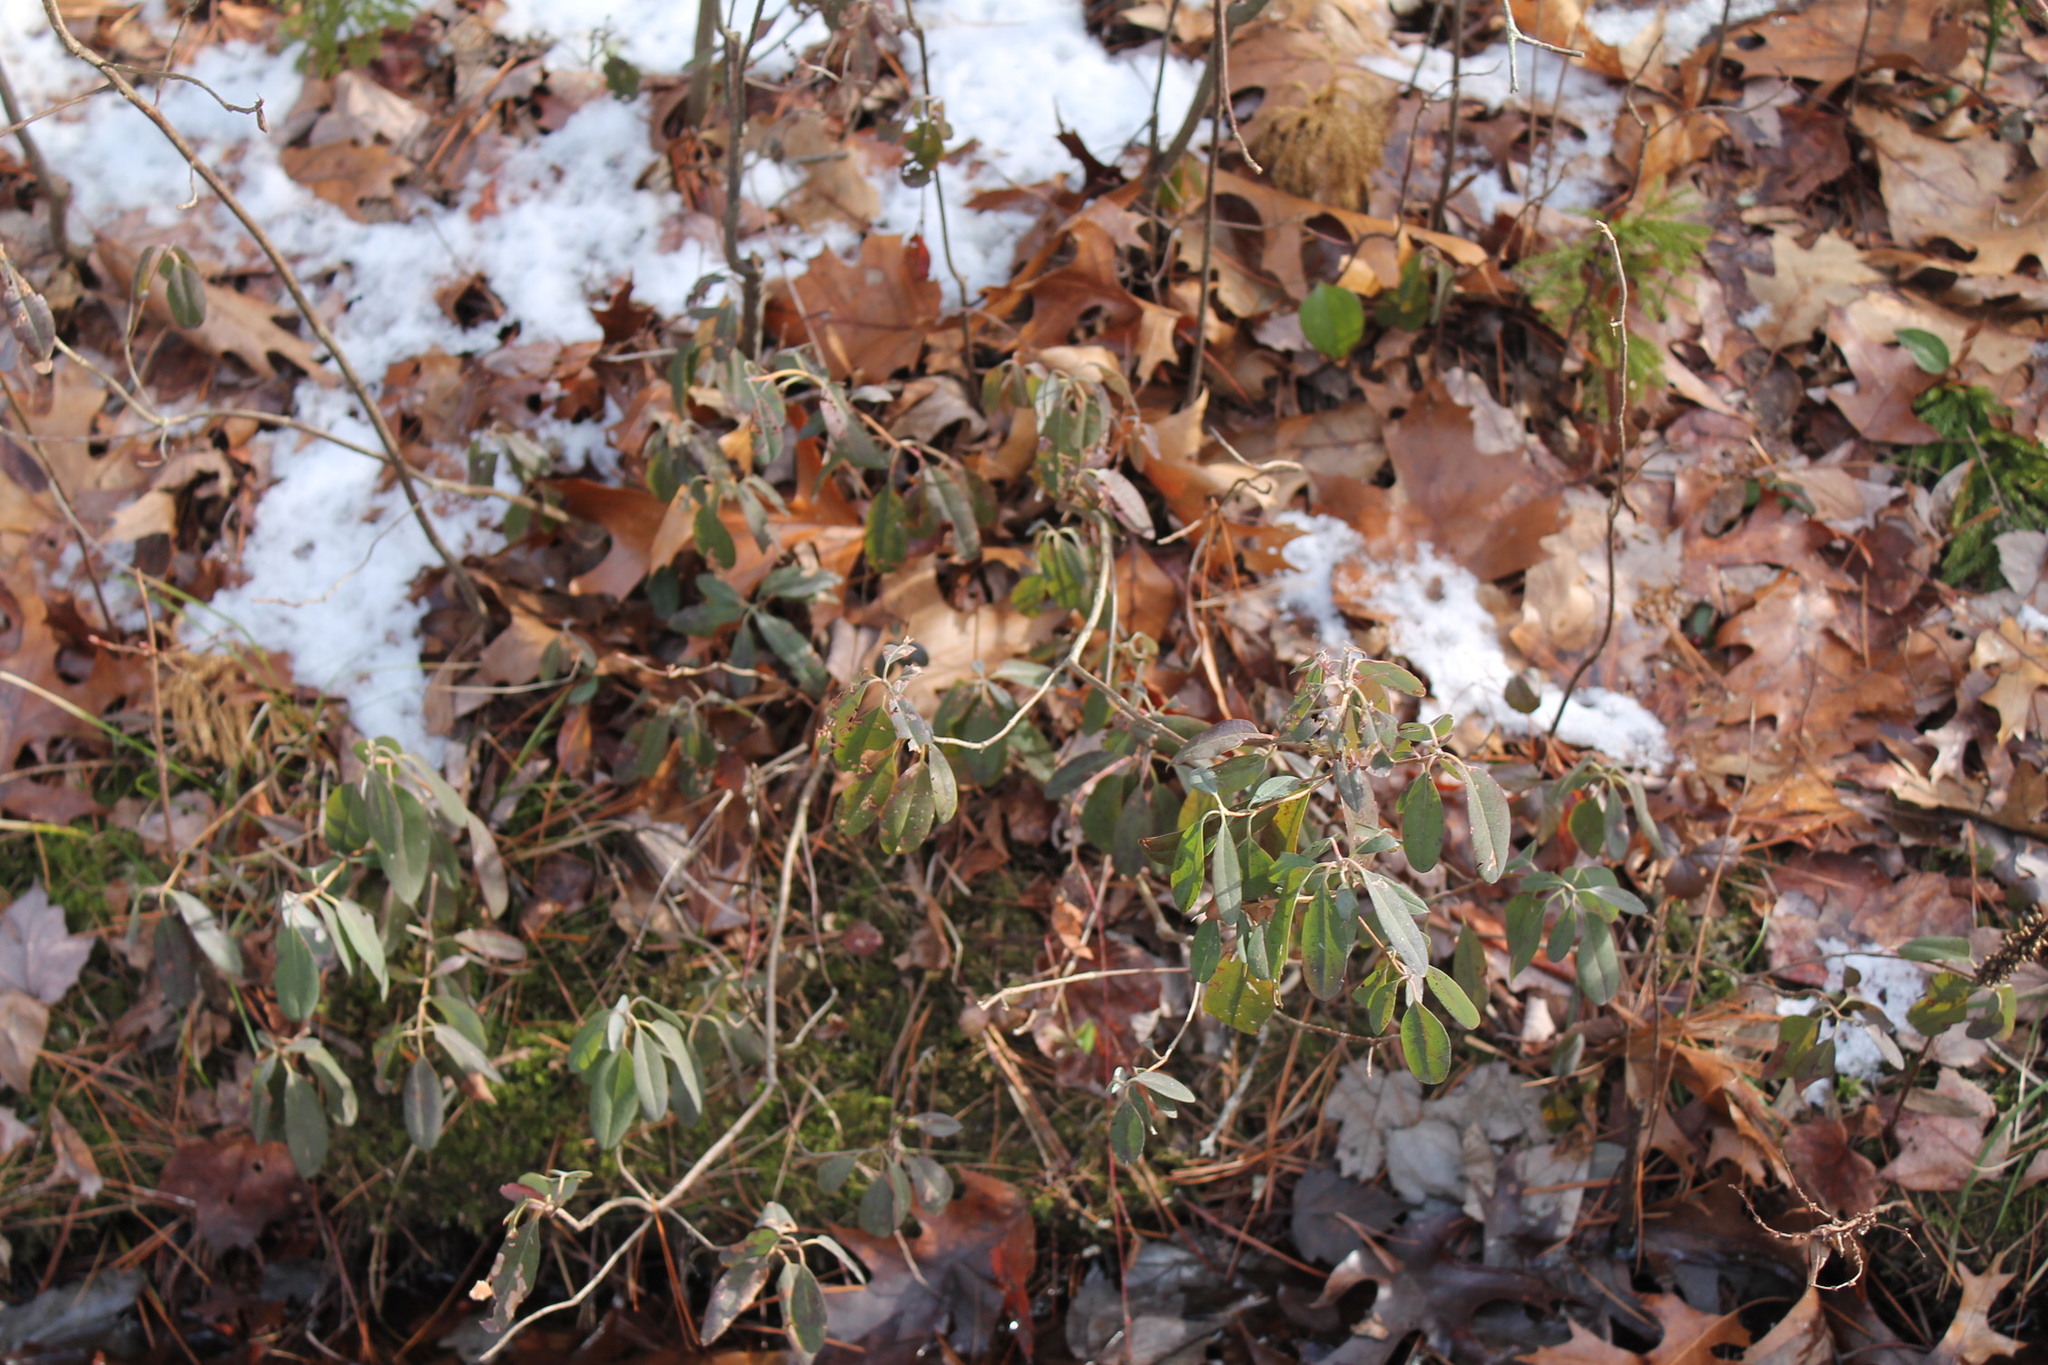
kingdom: Plantae
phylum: Tracheophyta
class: Magnoliopsida
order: Ericales
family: Ericaceae
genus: Kalmia
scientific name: Kalmia angustifolia
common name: Sheep-laurel
